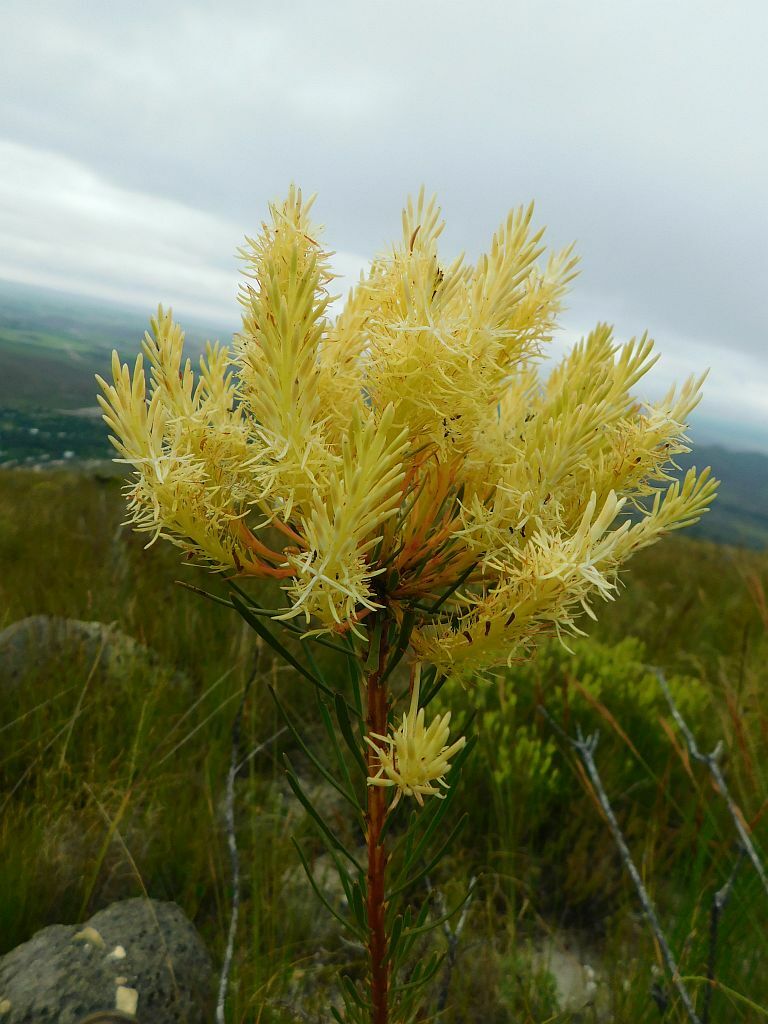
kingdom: Plantae
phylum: Tracheophyta
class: Magnoliopsida
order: Proteales
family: Proteaceae
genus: Aulax
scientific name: Aulax pallasia
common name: Needle-leaf featherbush
